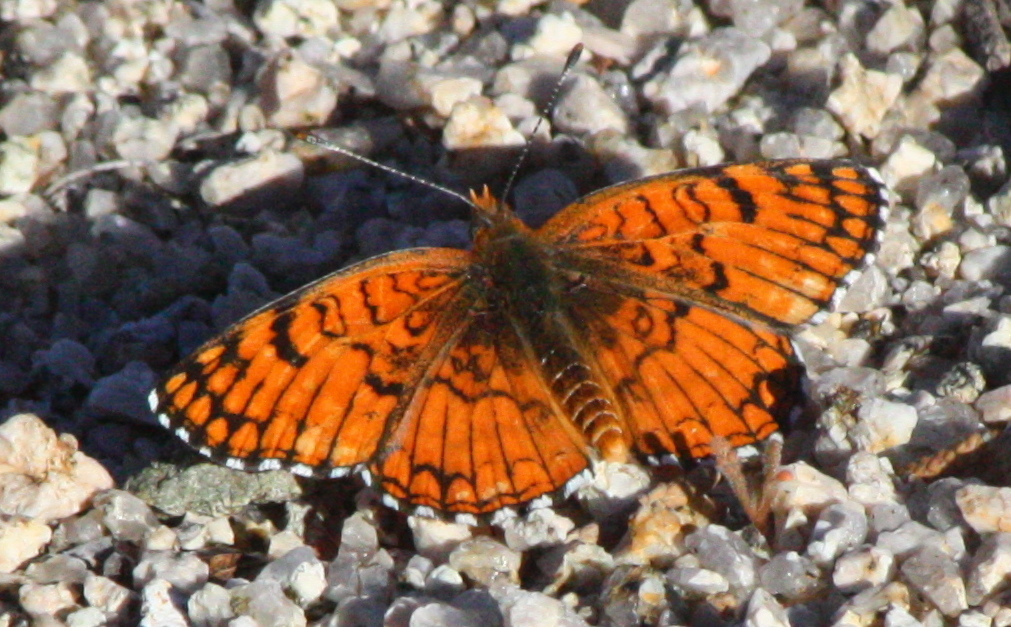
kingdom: Animalia
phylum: Arthropoda
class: Insecta
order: Lepidoptera
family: Nymphalidae
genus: Chlosyne
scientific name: Chlosyne acastus
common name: Sagebrush checkerspot
